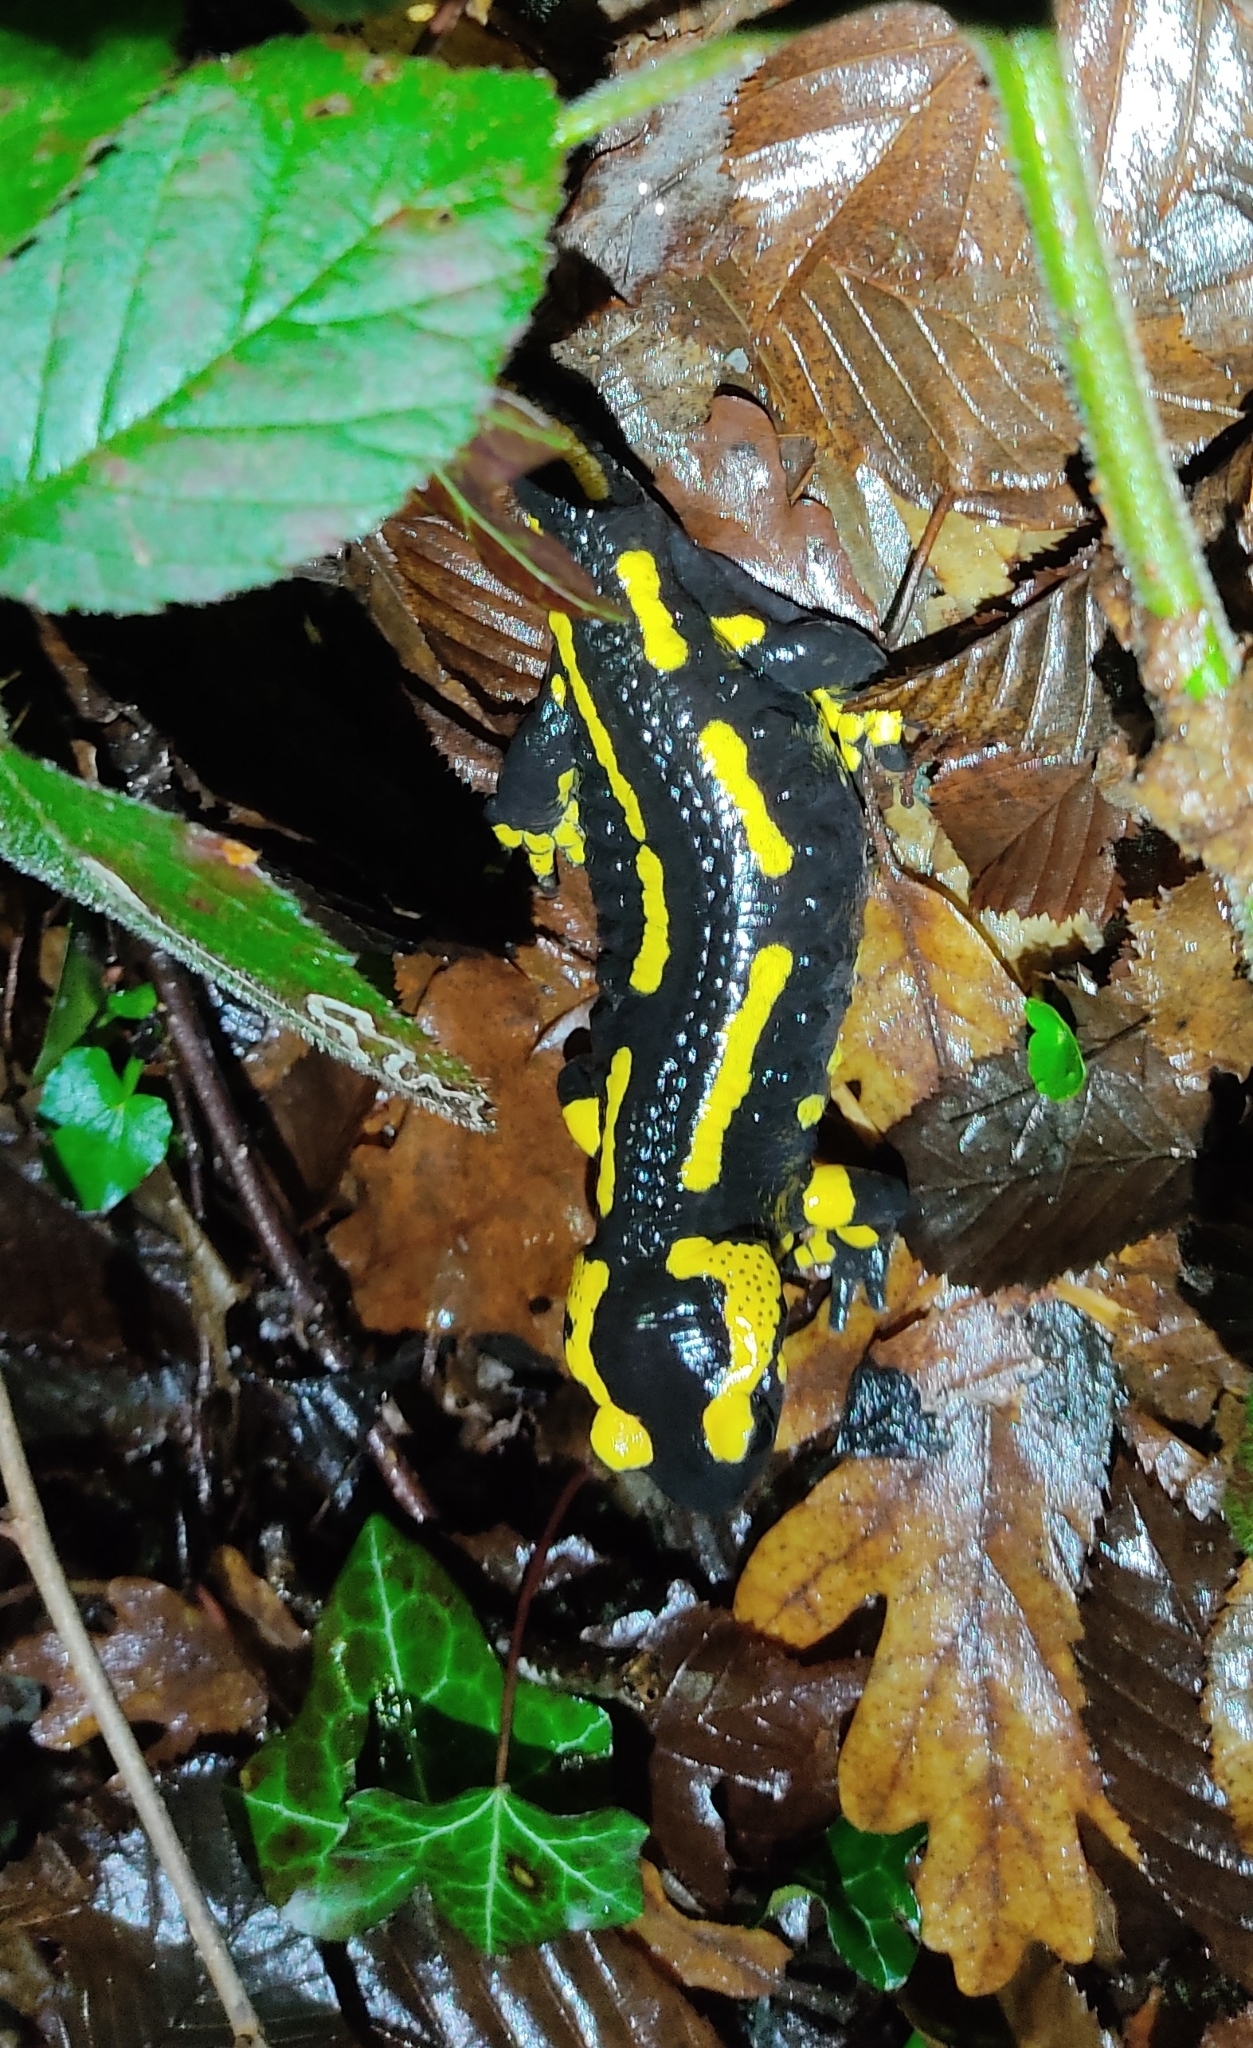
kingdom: Animalia
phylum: Chordata
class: Amphibia
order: Caudata
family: Salamandridae
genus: Salamandra
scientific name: Salamandra salamandra
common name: Fire salamander
